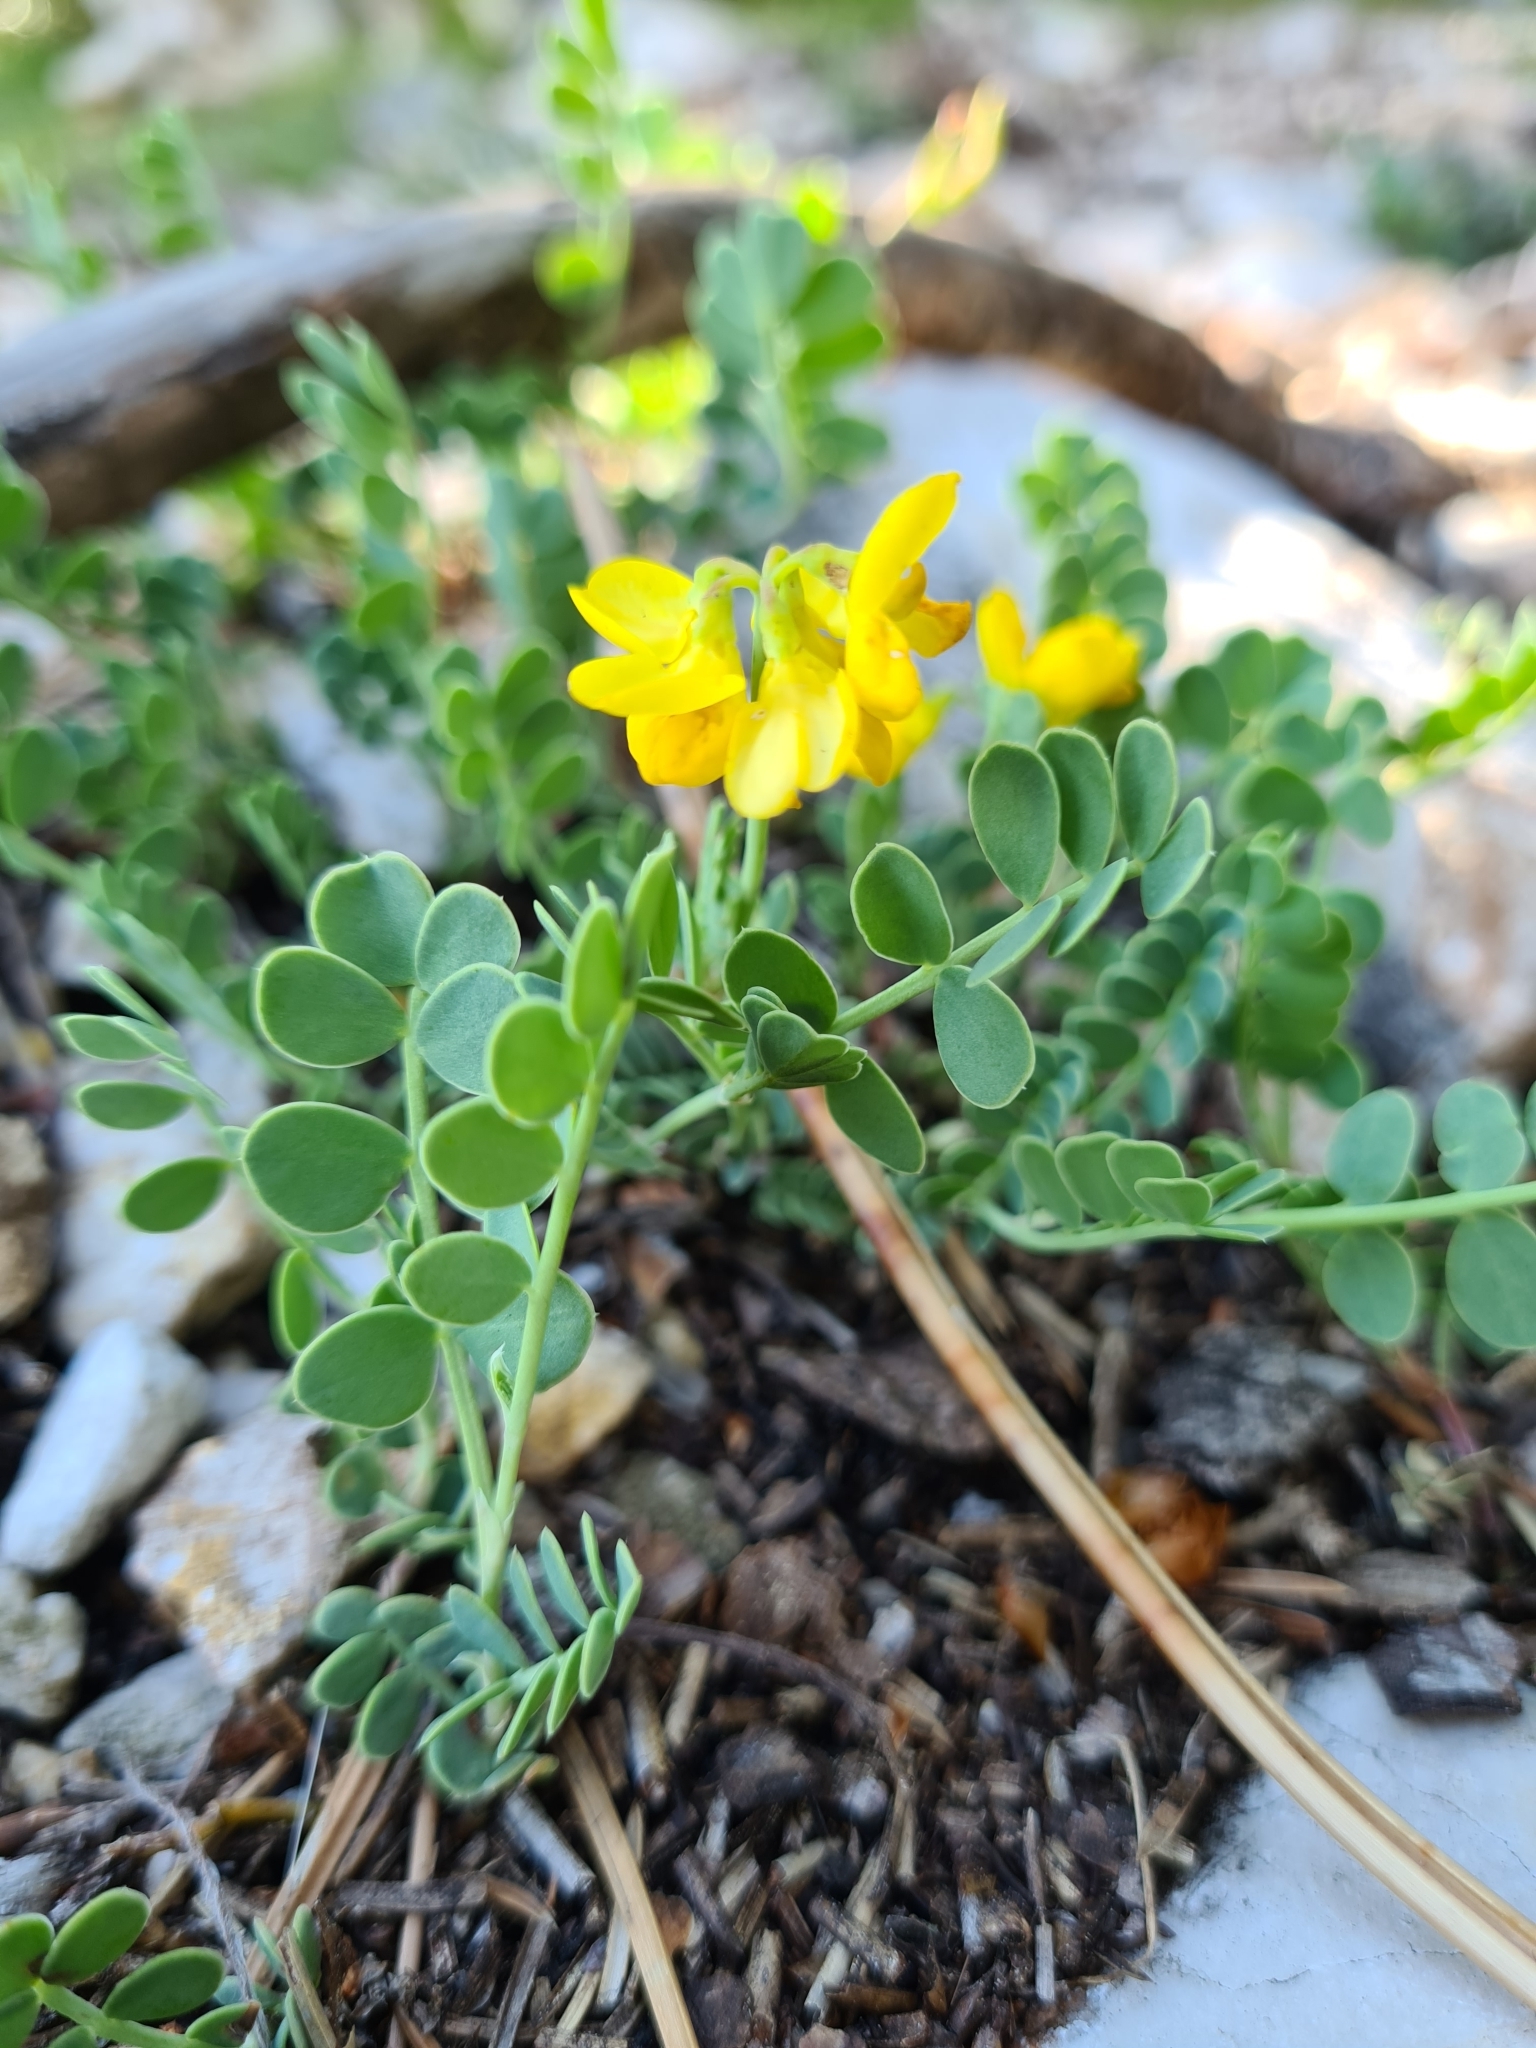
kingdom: Plantae
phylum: Tracheophyta
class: Magnoliopsida
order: Fabales
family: Fabaceae
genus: Coronilla
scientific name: Coronilla vaginalis
